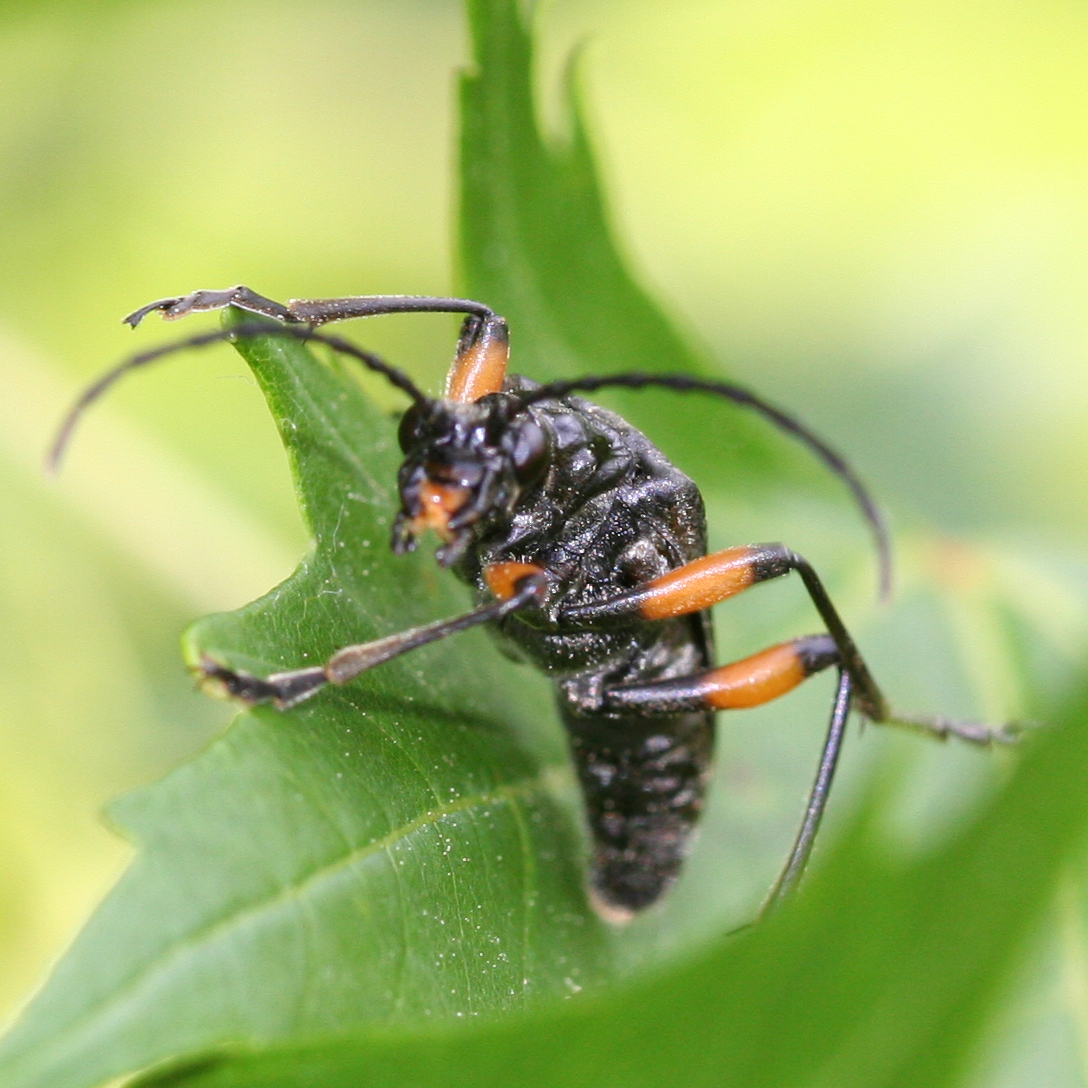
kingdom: Animalia
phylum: Arthropoda
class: Insecta
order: Coleoptera
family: Cerambycidae
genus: Stenocorus
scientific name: Stenocorus schaumii
